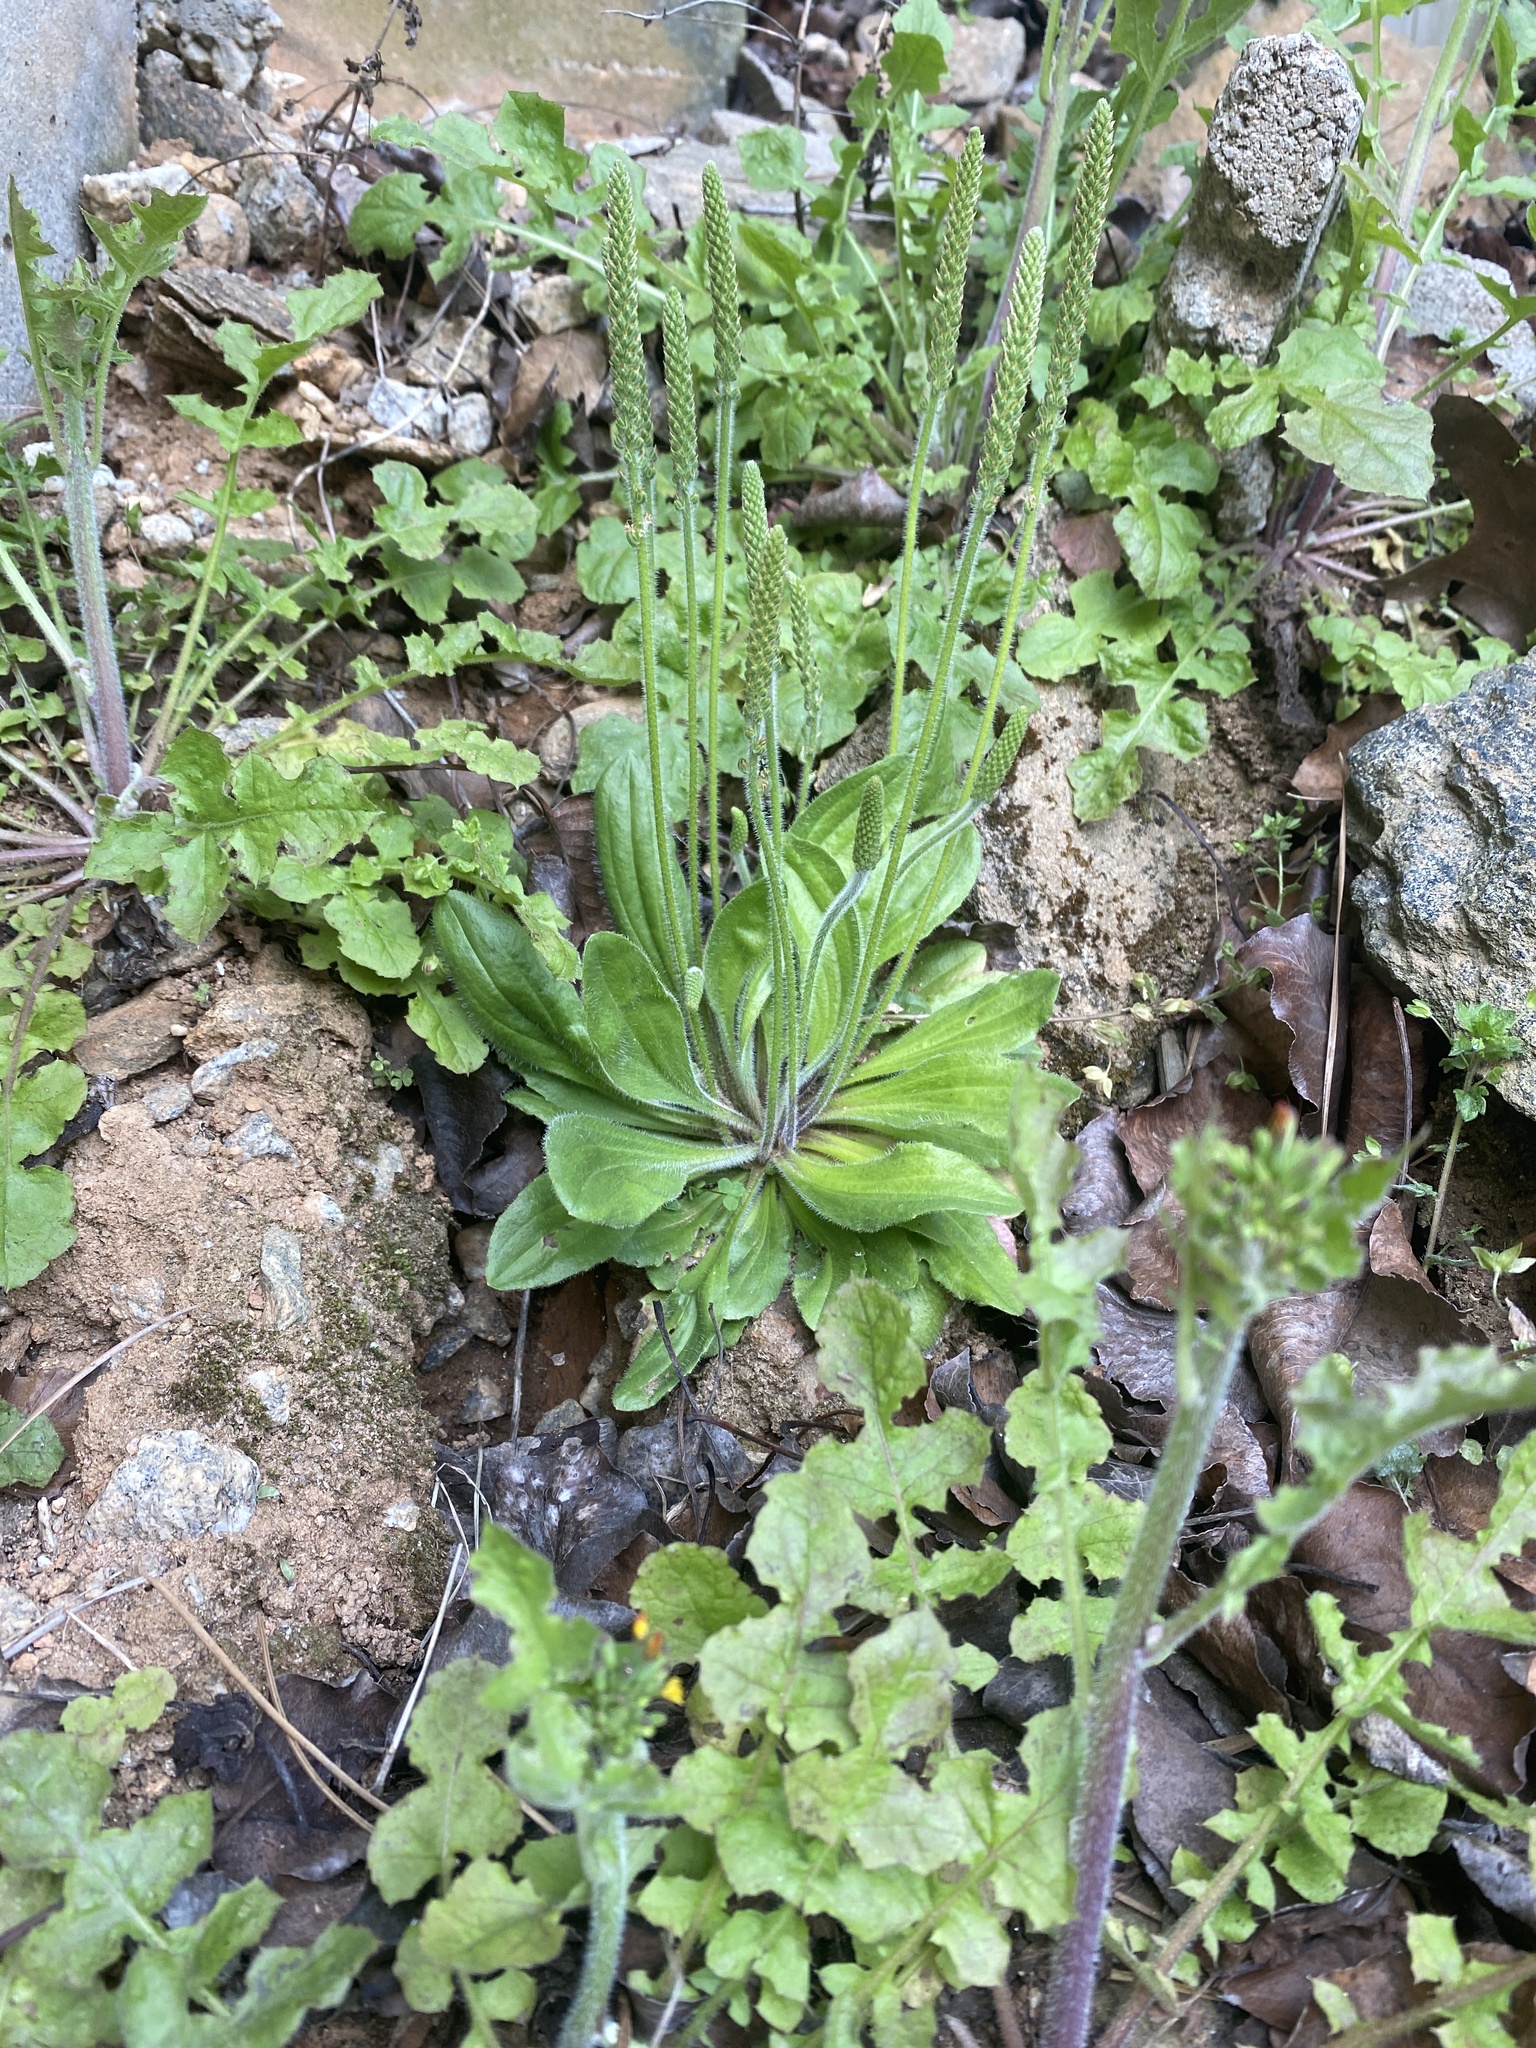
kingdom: Plantae
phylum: Tracheophyta
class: Magnoliopsida
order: Lamiales
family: Plantaginaceae
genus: Plantago
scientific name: Plantago virginica
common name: Hoary plantain
